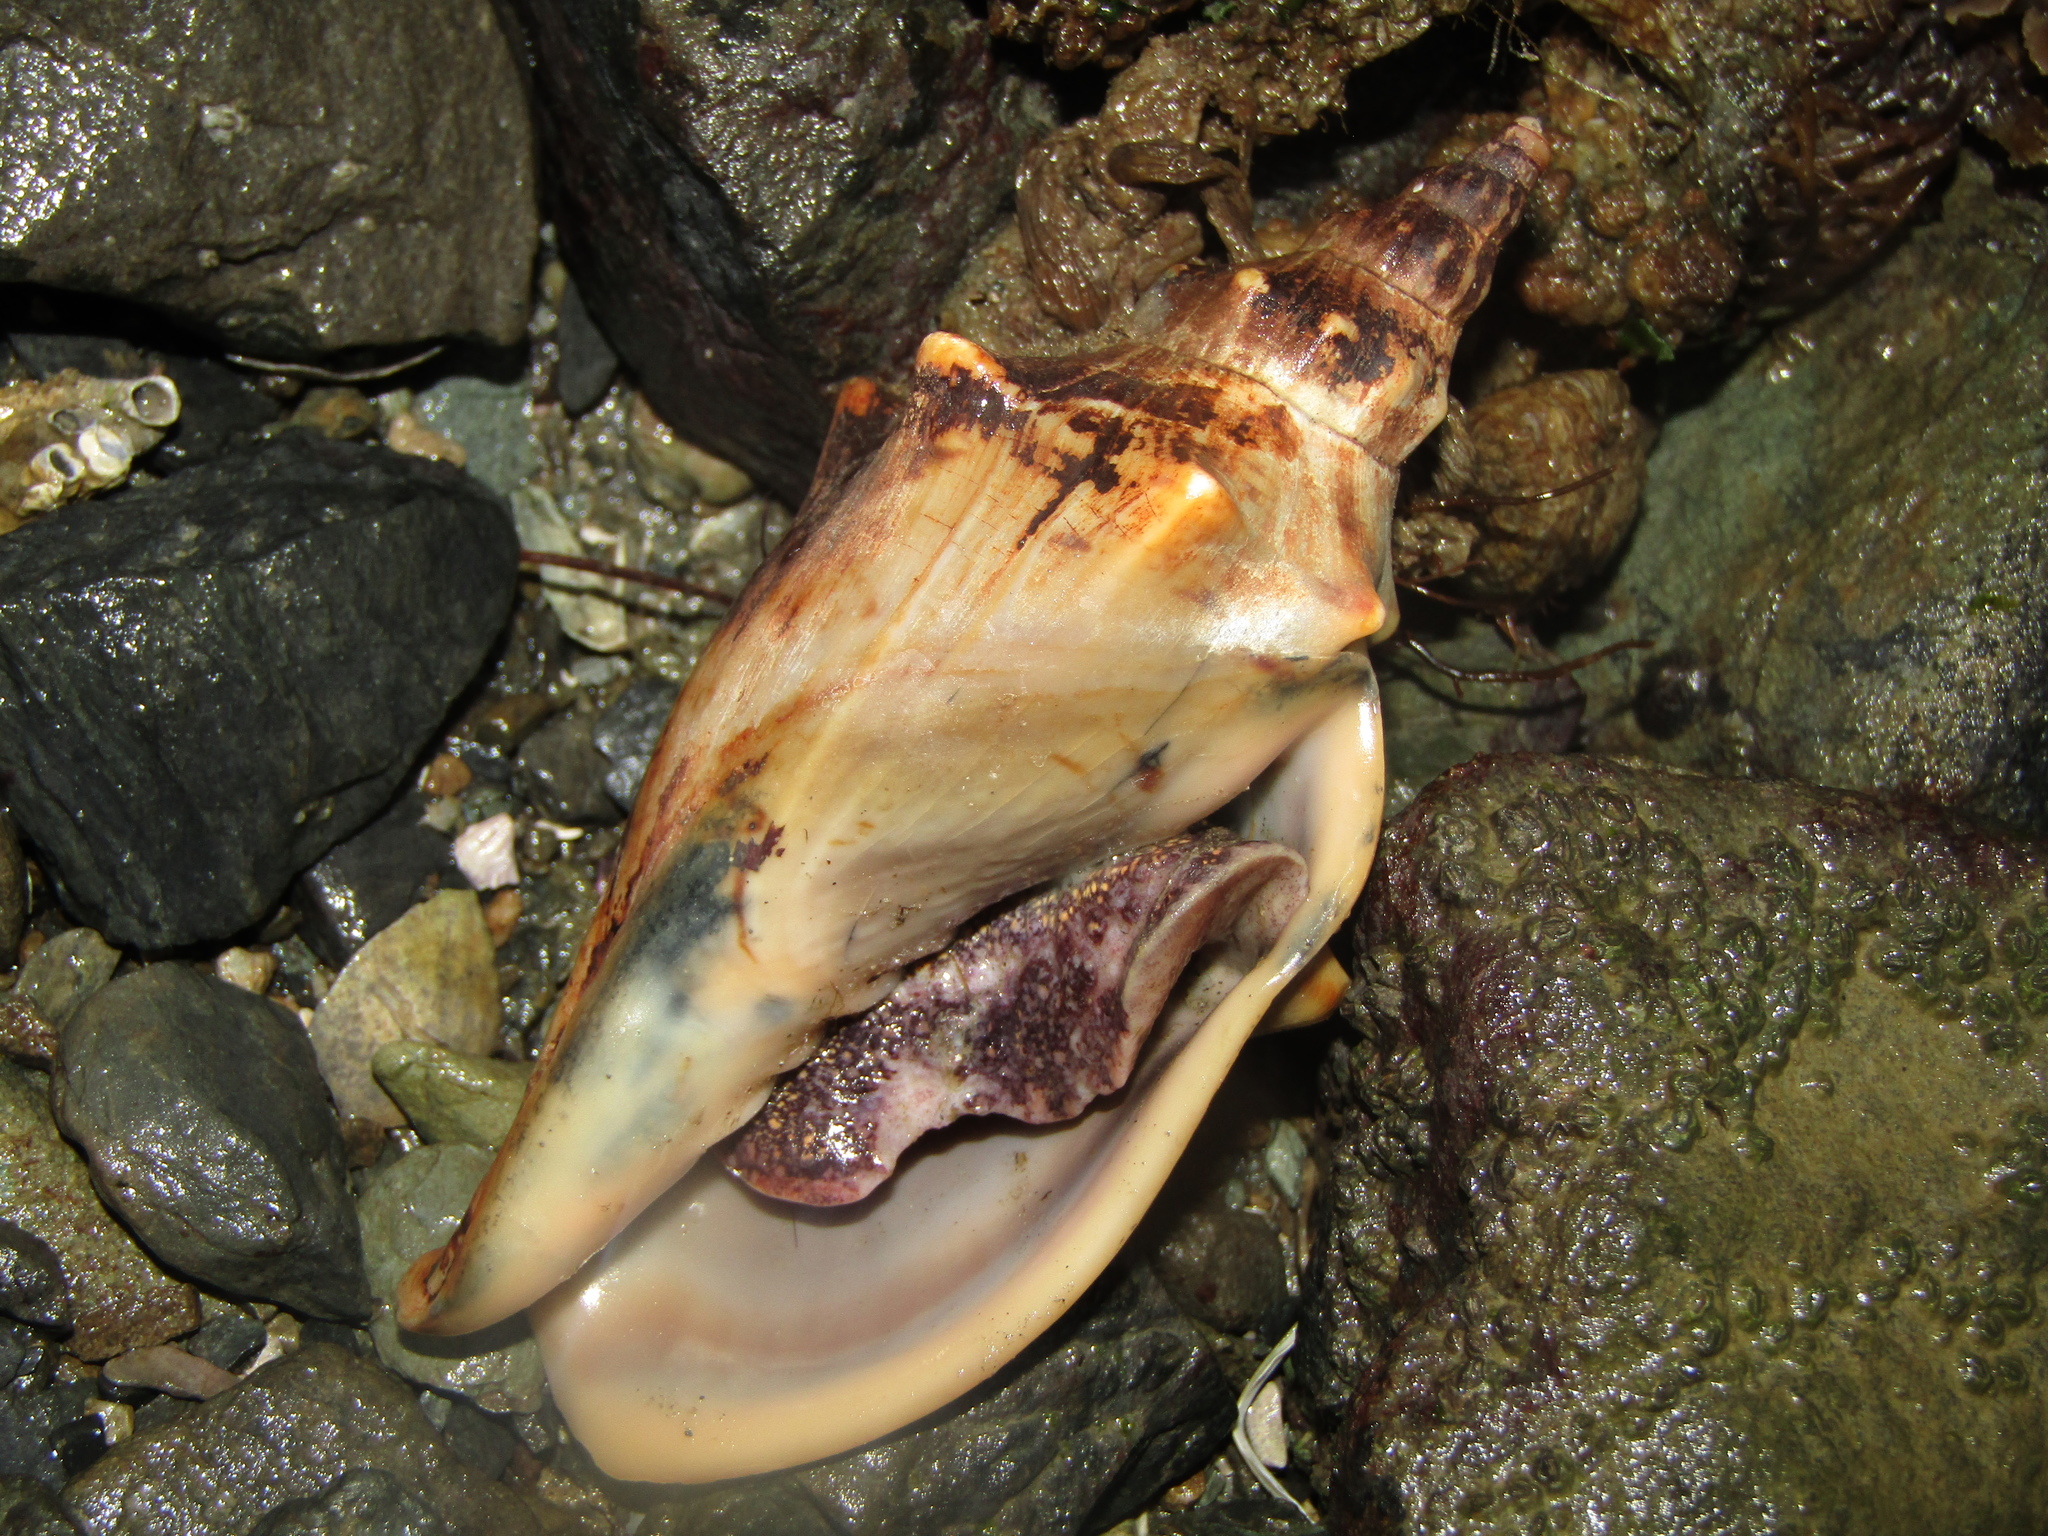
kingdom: Animalia
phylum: Mollusca
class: Gastropoda
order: Neogastropoda
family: Volutidae
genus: Alcithoe
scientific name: Alcithoe arabica
